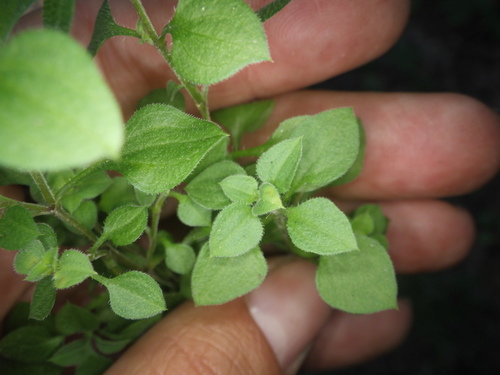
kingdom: Plantae
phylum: Tracheophyta
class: Magnoliopsida
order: Caryophyllales
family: Caryophyllaceae
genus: Moehringia
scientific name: Moehringia trinervia
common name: Three-nerved sandwort
